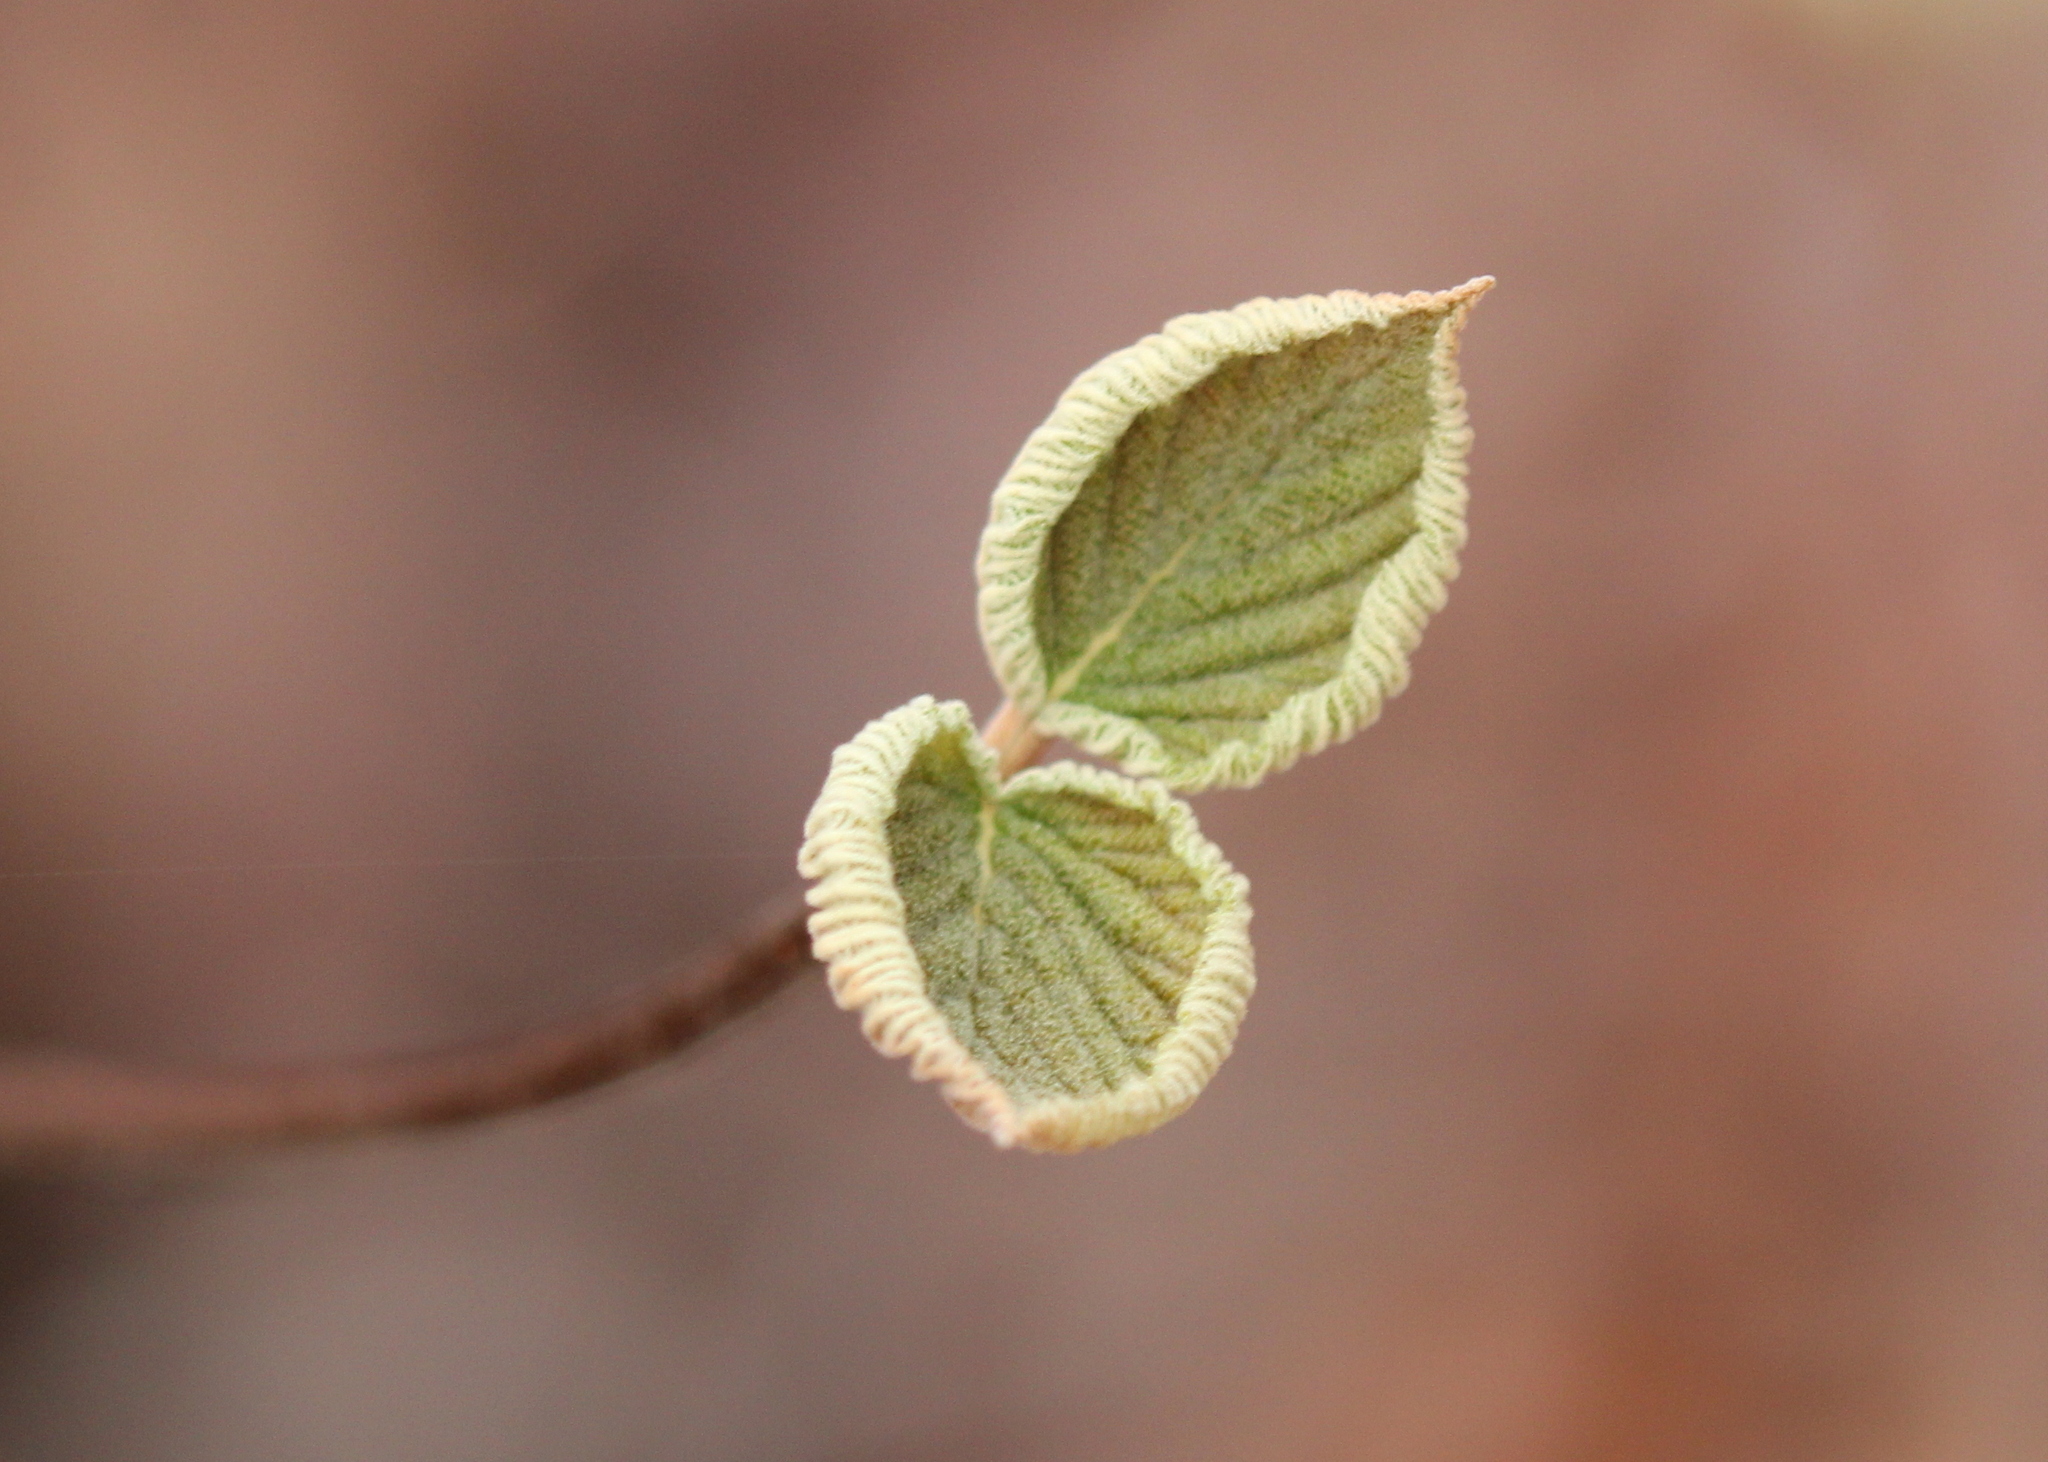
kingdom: Plantae
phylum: Tracheophyta
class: Magnoliopsida
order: Dipsacales
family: Viburnaceae
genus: Viburnum
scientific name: Viburnum lantanoides
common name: Hobblebush
